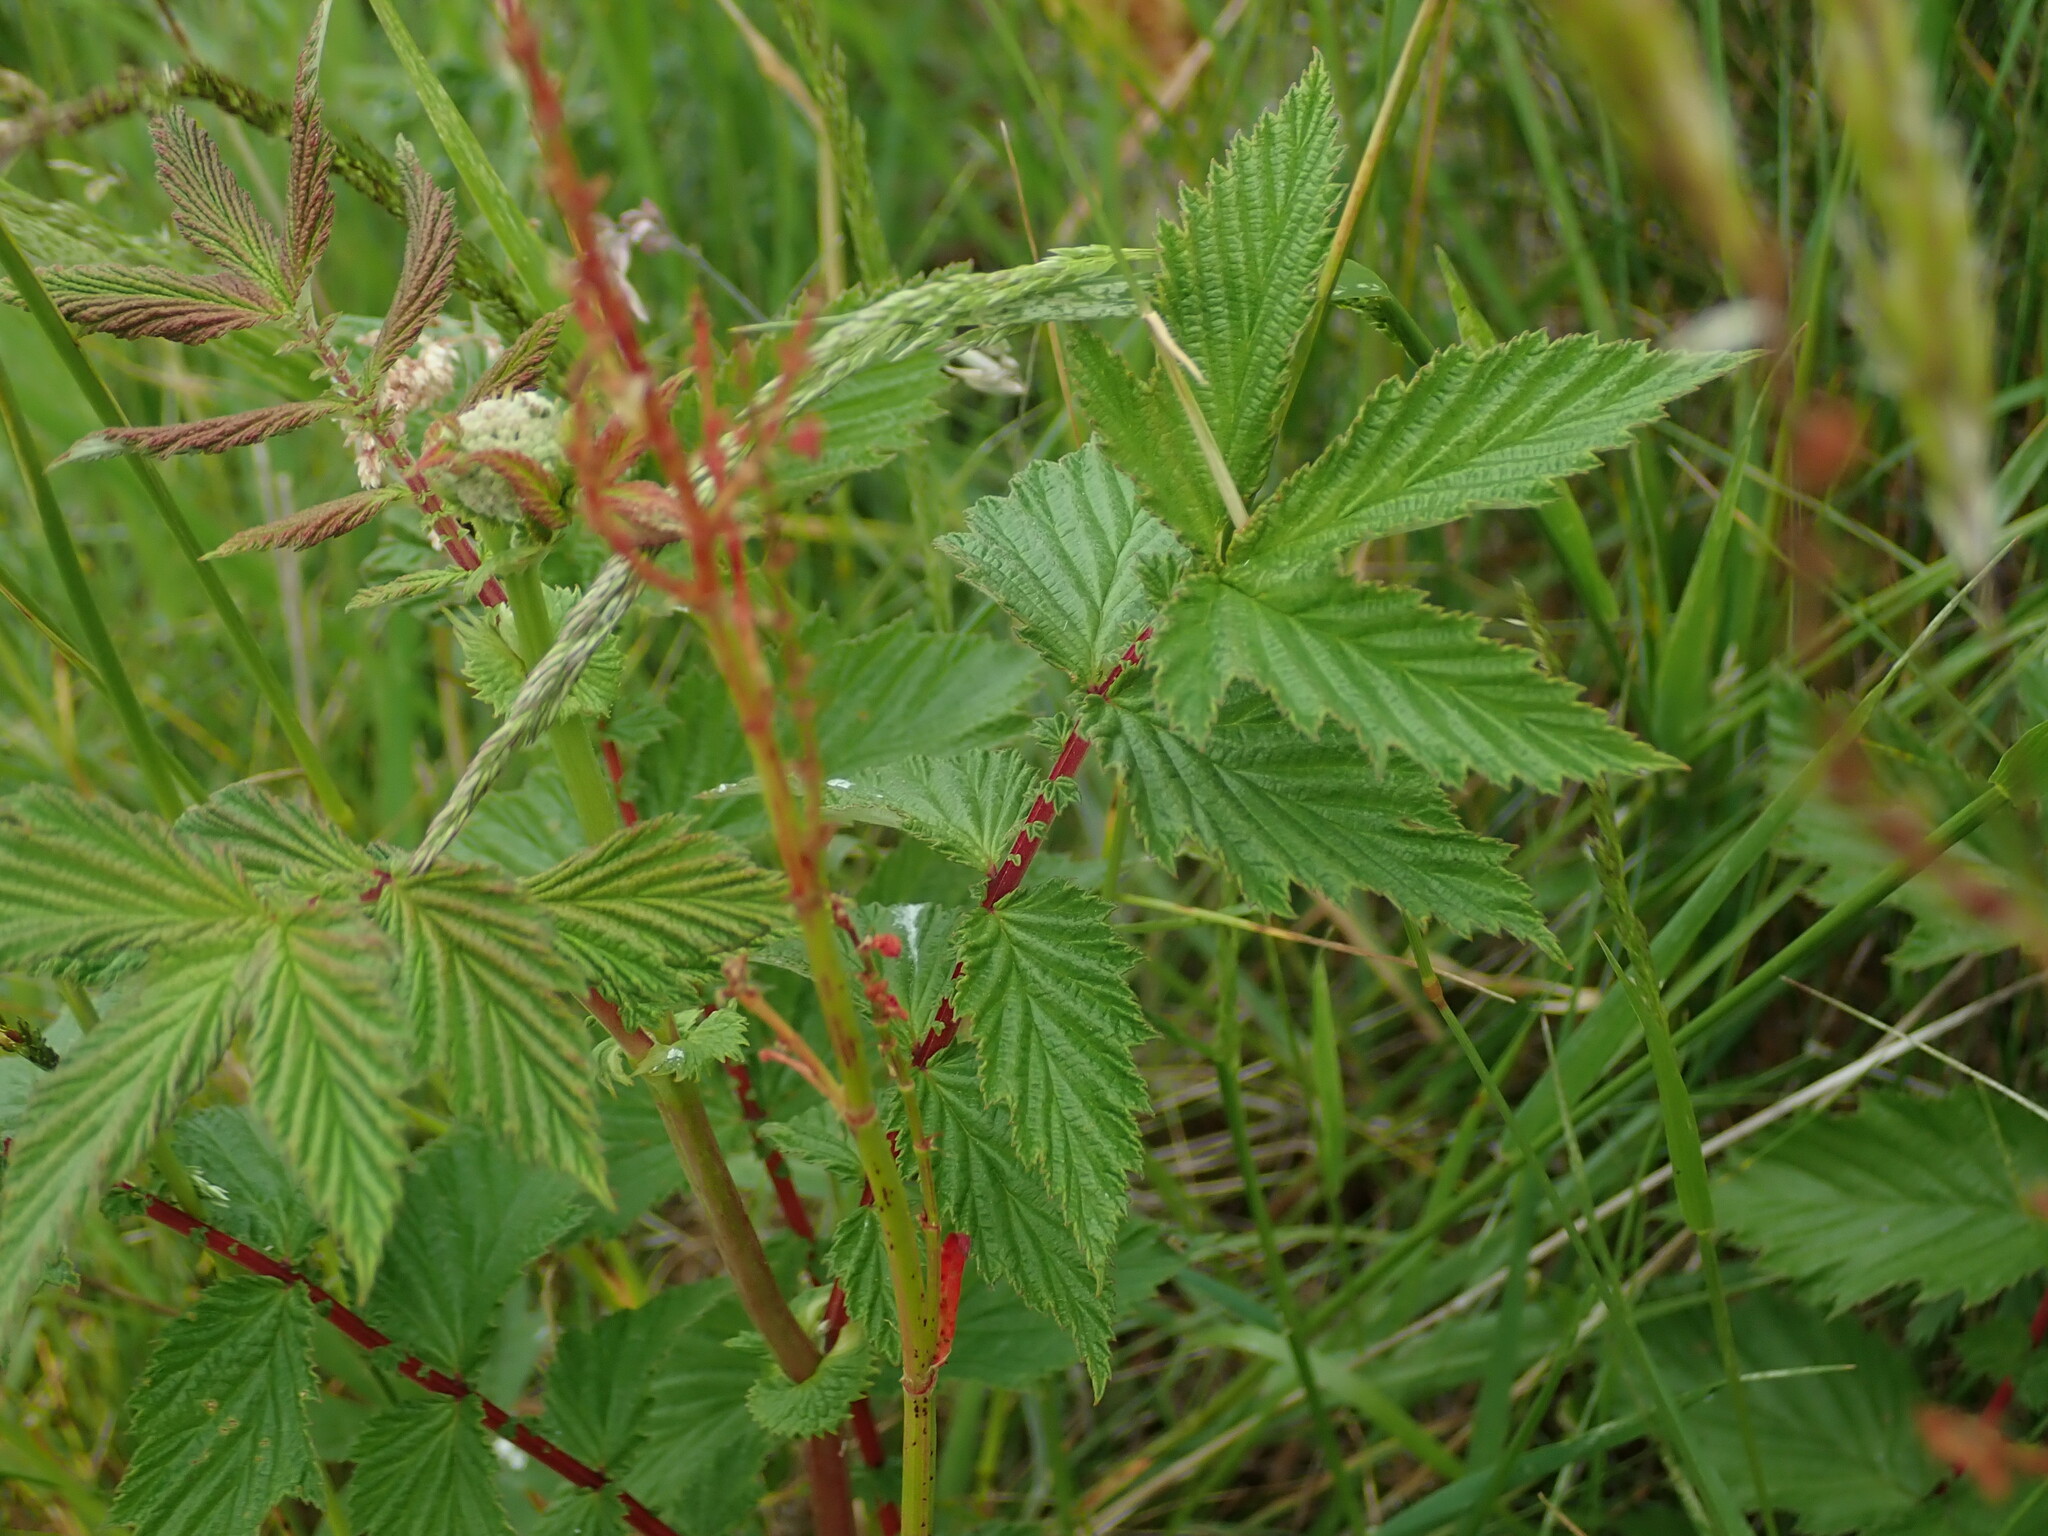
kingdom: Plantae
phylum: Tracheophyta
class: Magnoliopsida
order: Rosales
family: Rosaceae
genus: Filipendula
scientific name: Filipendula ulmaria
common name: Meadowsweet
